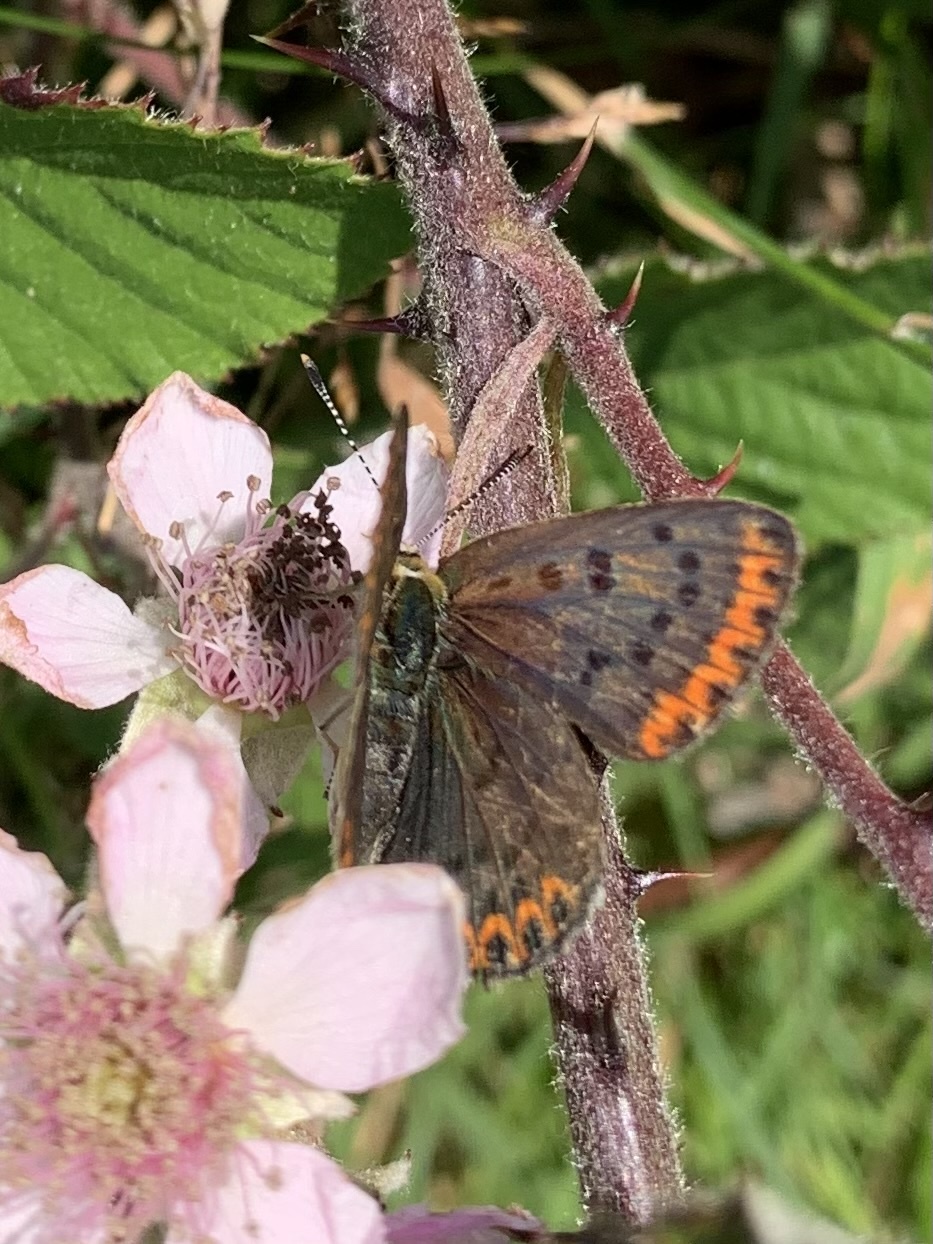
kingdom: Animalia
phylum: Arthropoda
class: Insecta
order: Lepidoptera
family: Lycaenidae
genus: Loweia
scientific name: Loweia tityrus
